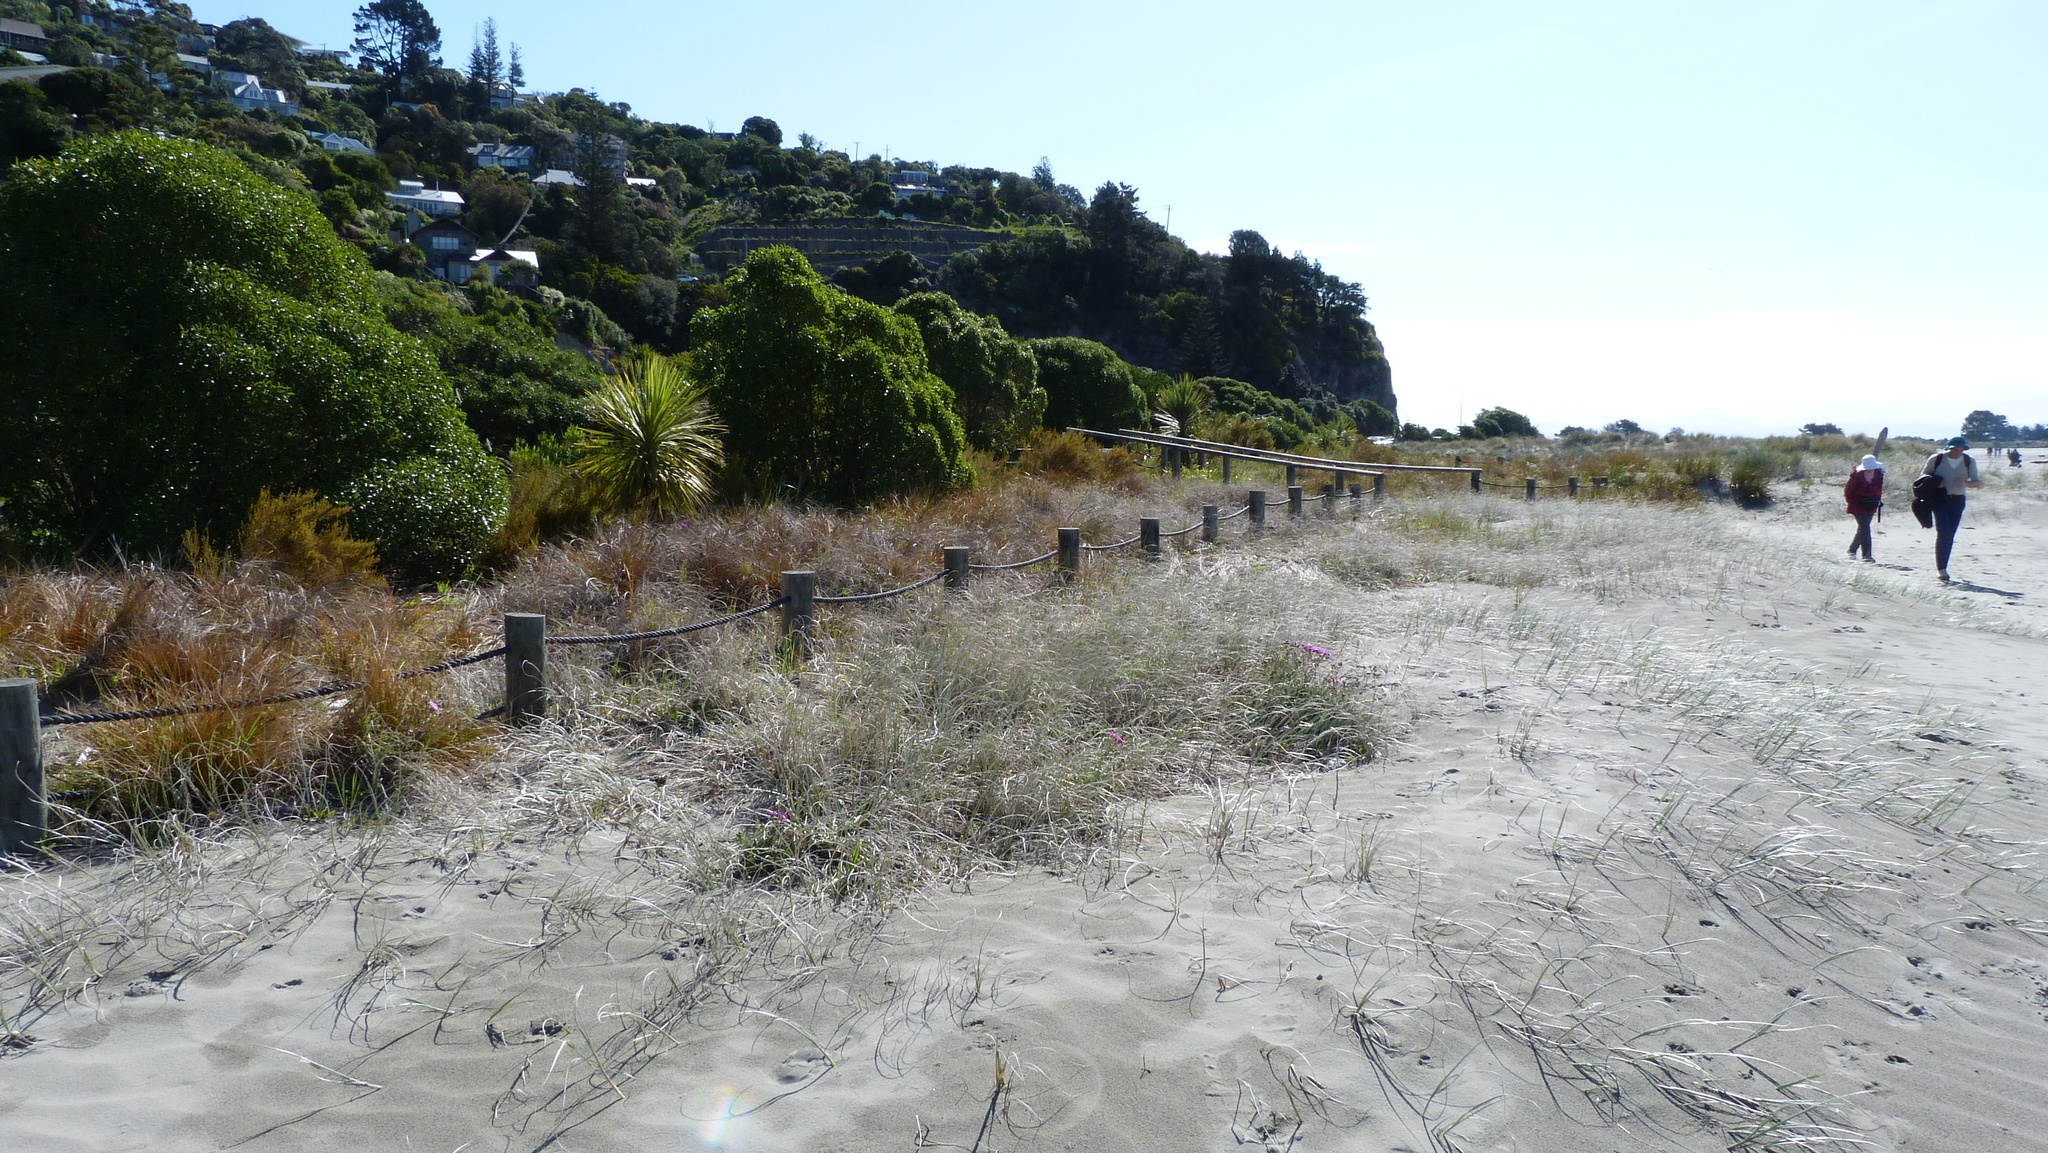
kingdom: Plantae
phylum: Tracheophyta
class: Liliopsida
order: Poales
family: Poaceae
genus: Spinifex
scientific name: Spinifex sericeus
